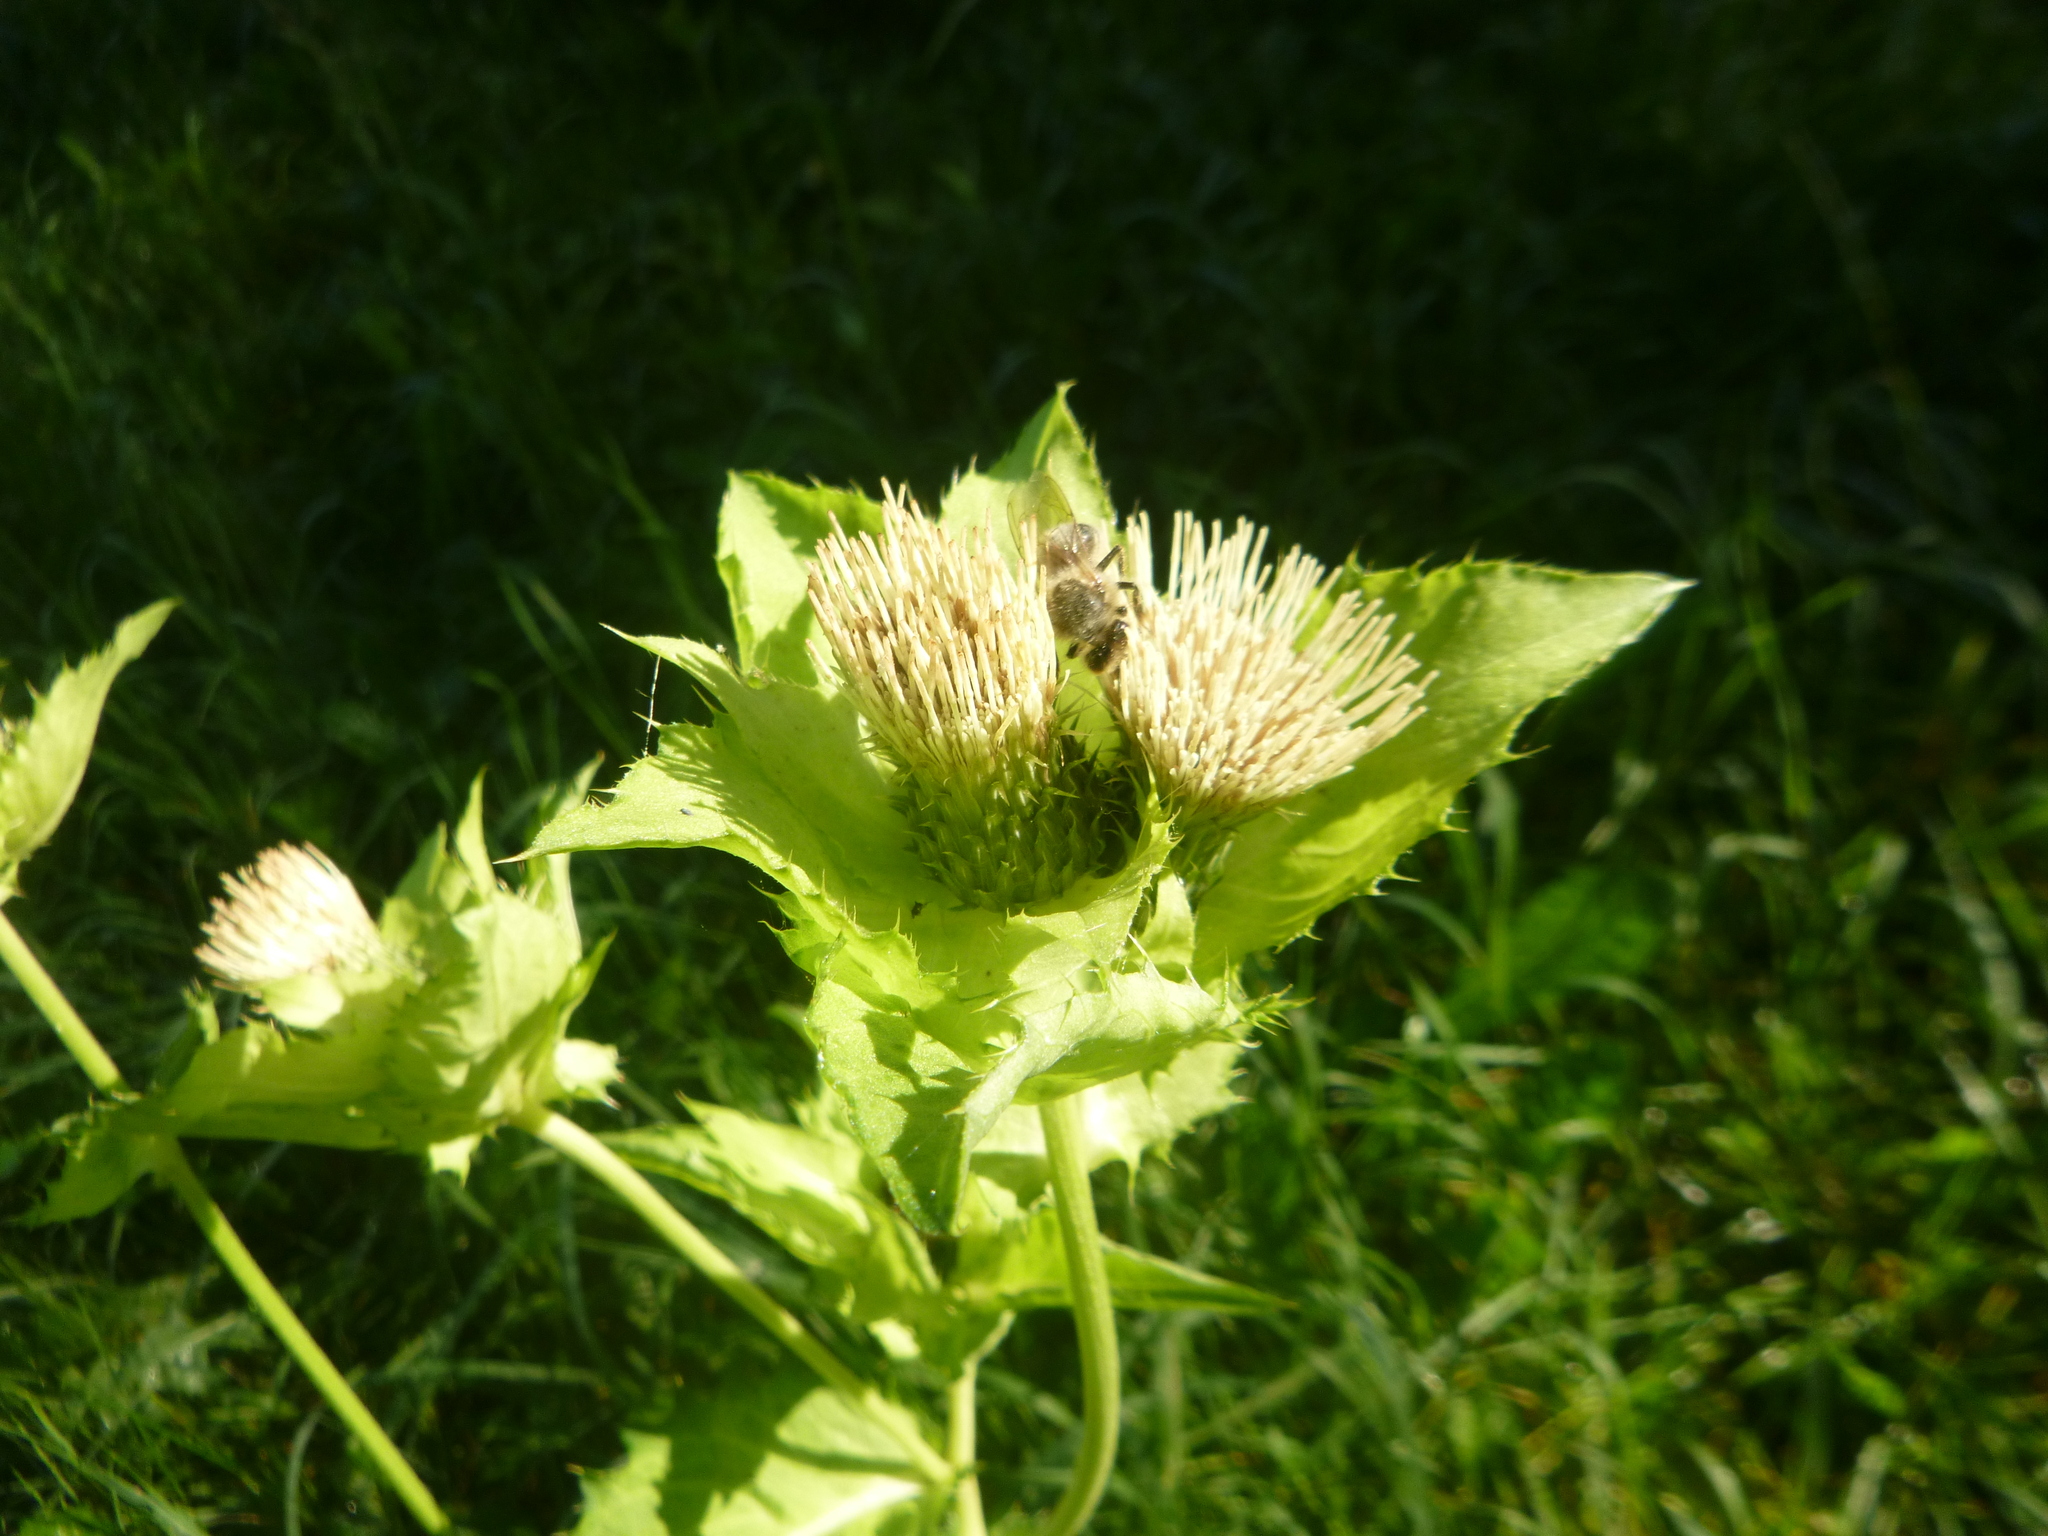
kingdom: Plantae
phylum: Tracheophyta
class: Magnoliopsida
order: Asterales
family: Asteraceae
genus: Cirsium
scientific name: Cirsium oleraceum
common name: Cabbage thistle
